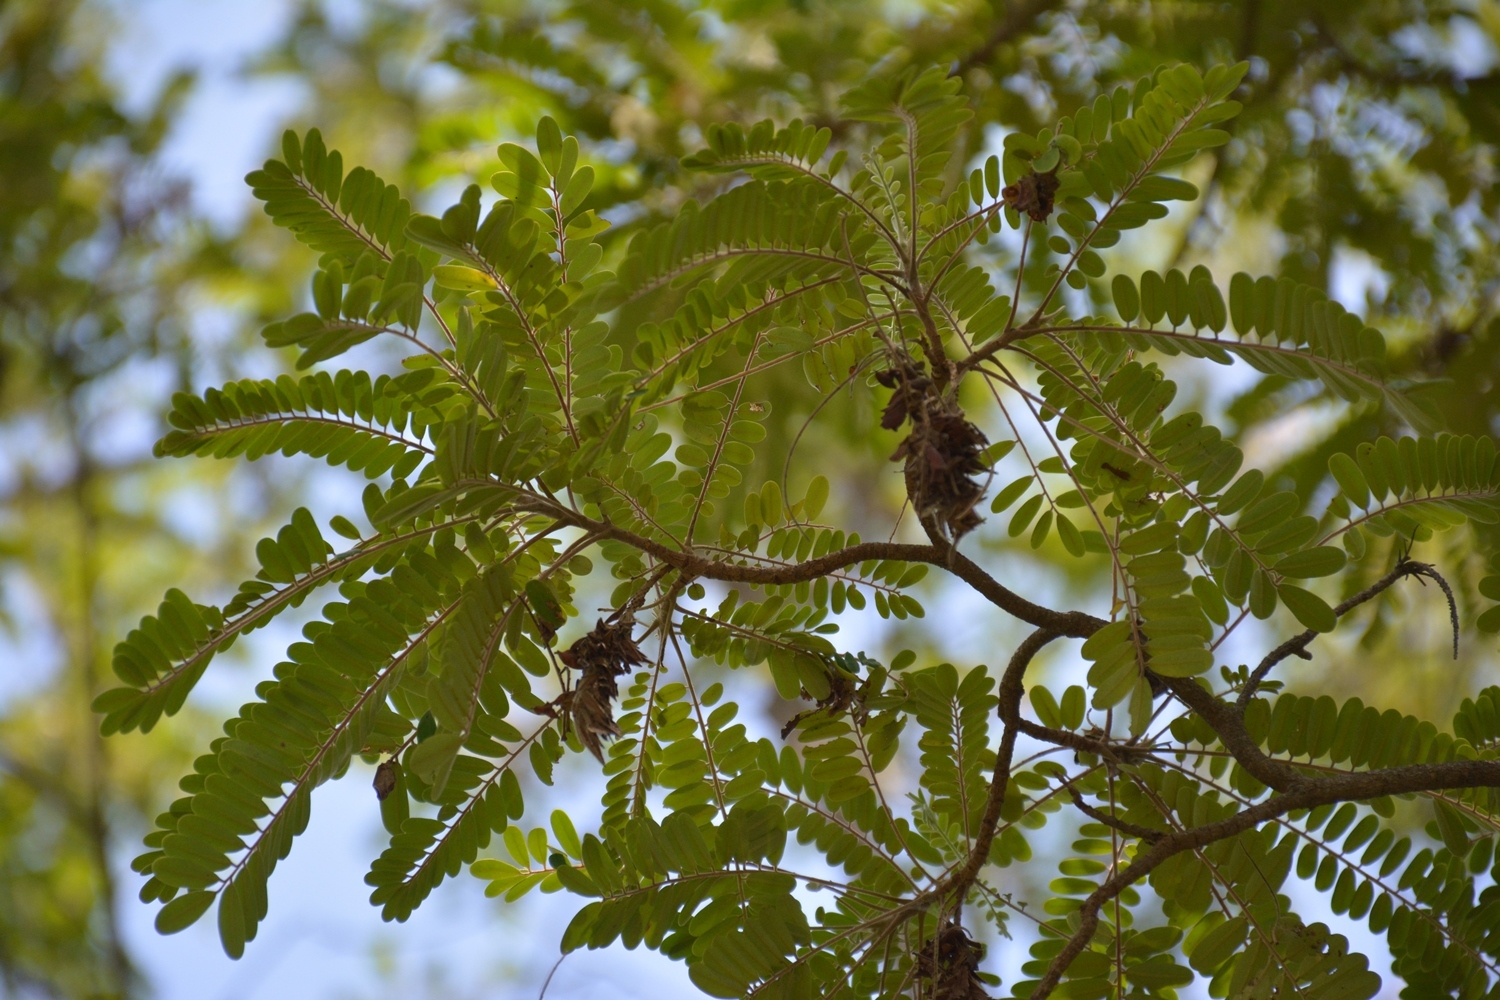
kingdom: Plantae
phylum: Tracheophyta
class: Magnoliopsida
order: Picramniales
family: Picramniaceae
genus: Alvaradoa
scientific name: Alvaradoa amorphoides
